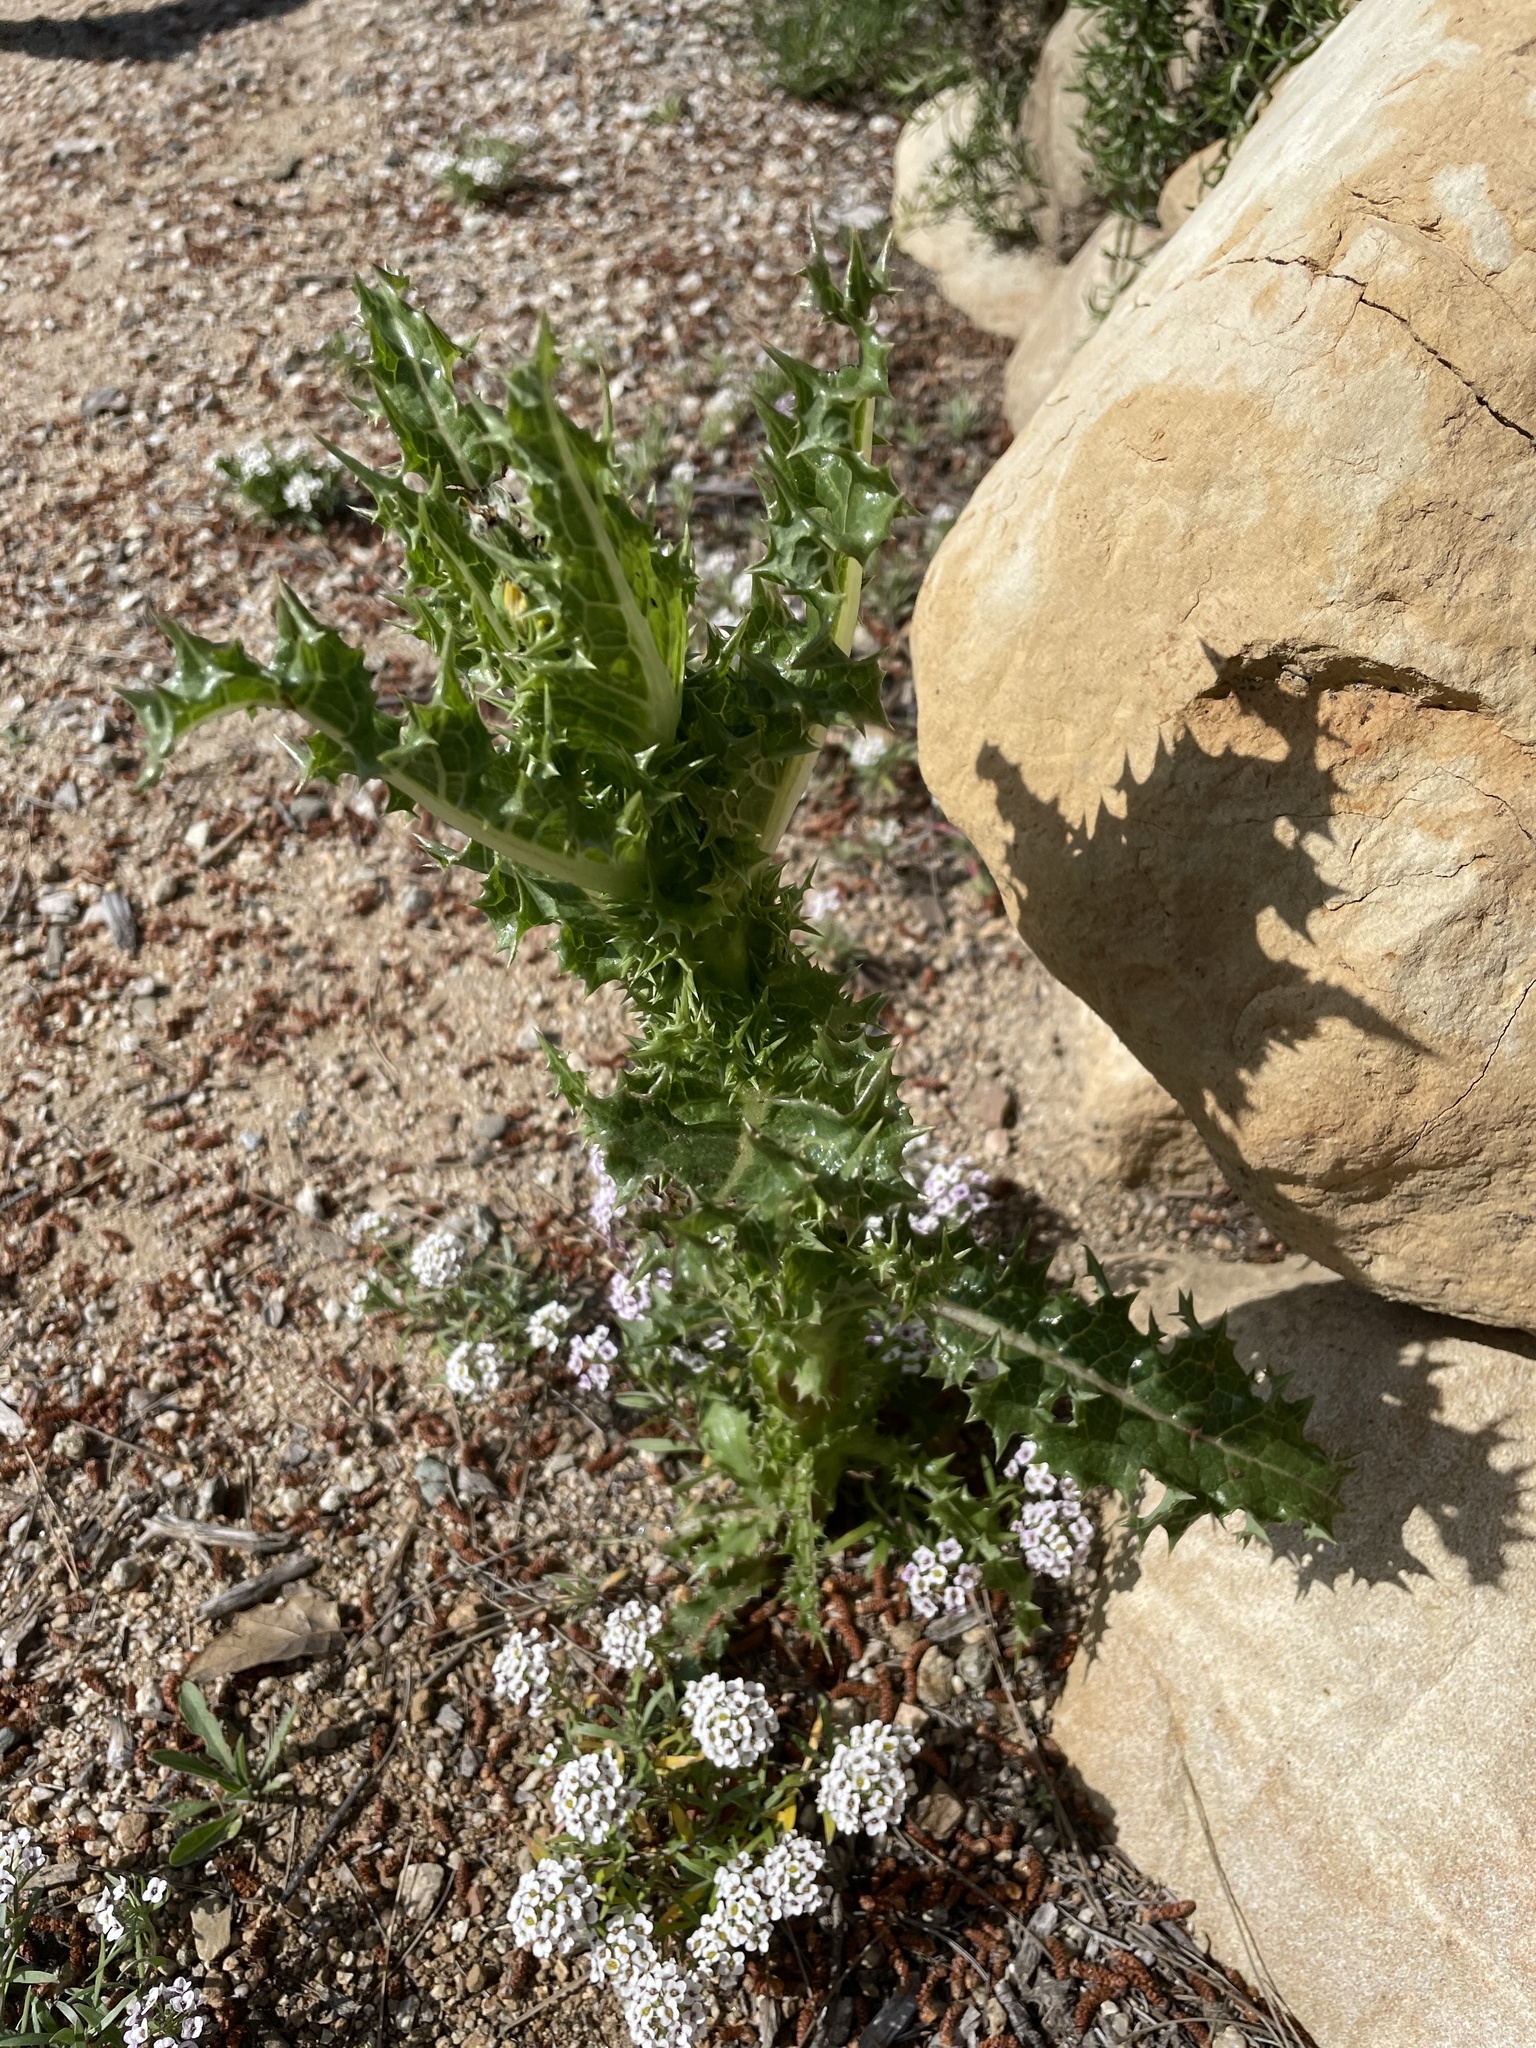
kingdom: Plantae
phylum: Tracheophyta
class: Magnoliopsida
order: Asterales
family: Asteraceae
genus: Sonchus
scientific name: Sonchus asper
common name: Prickly sow-thistle
